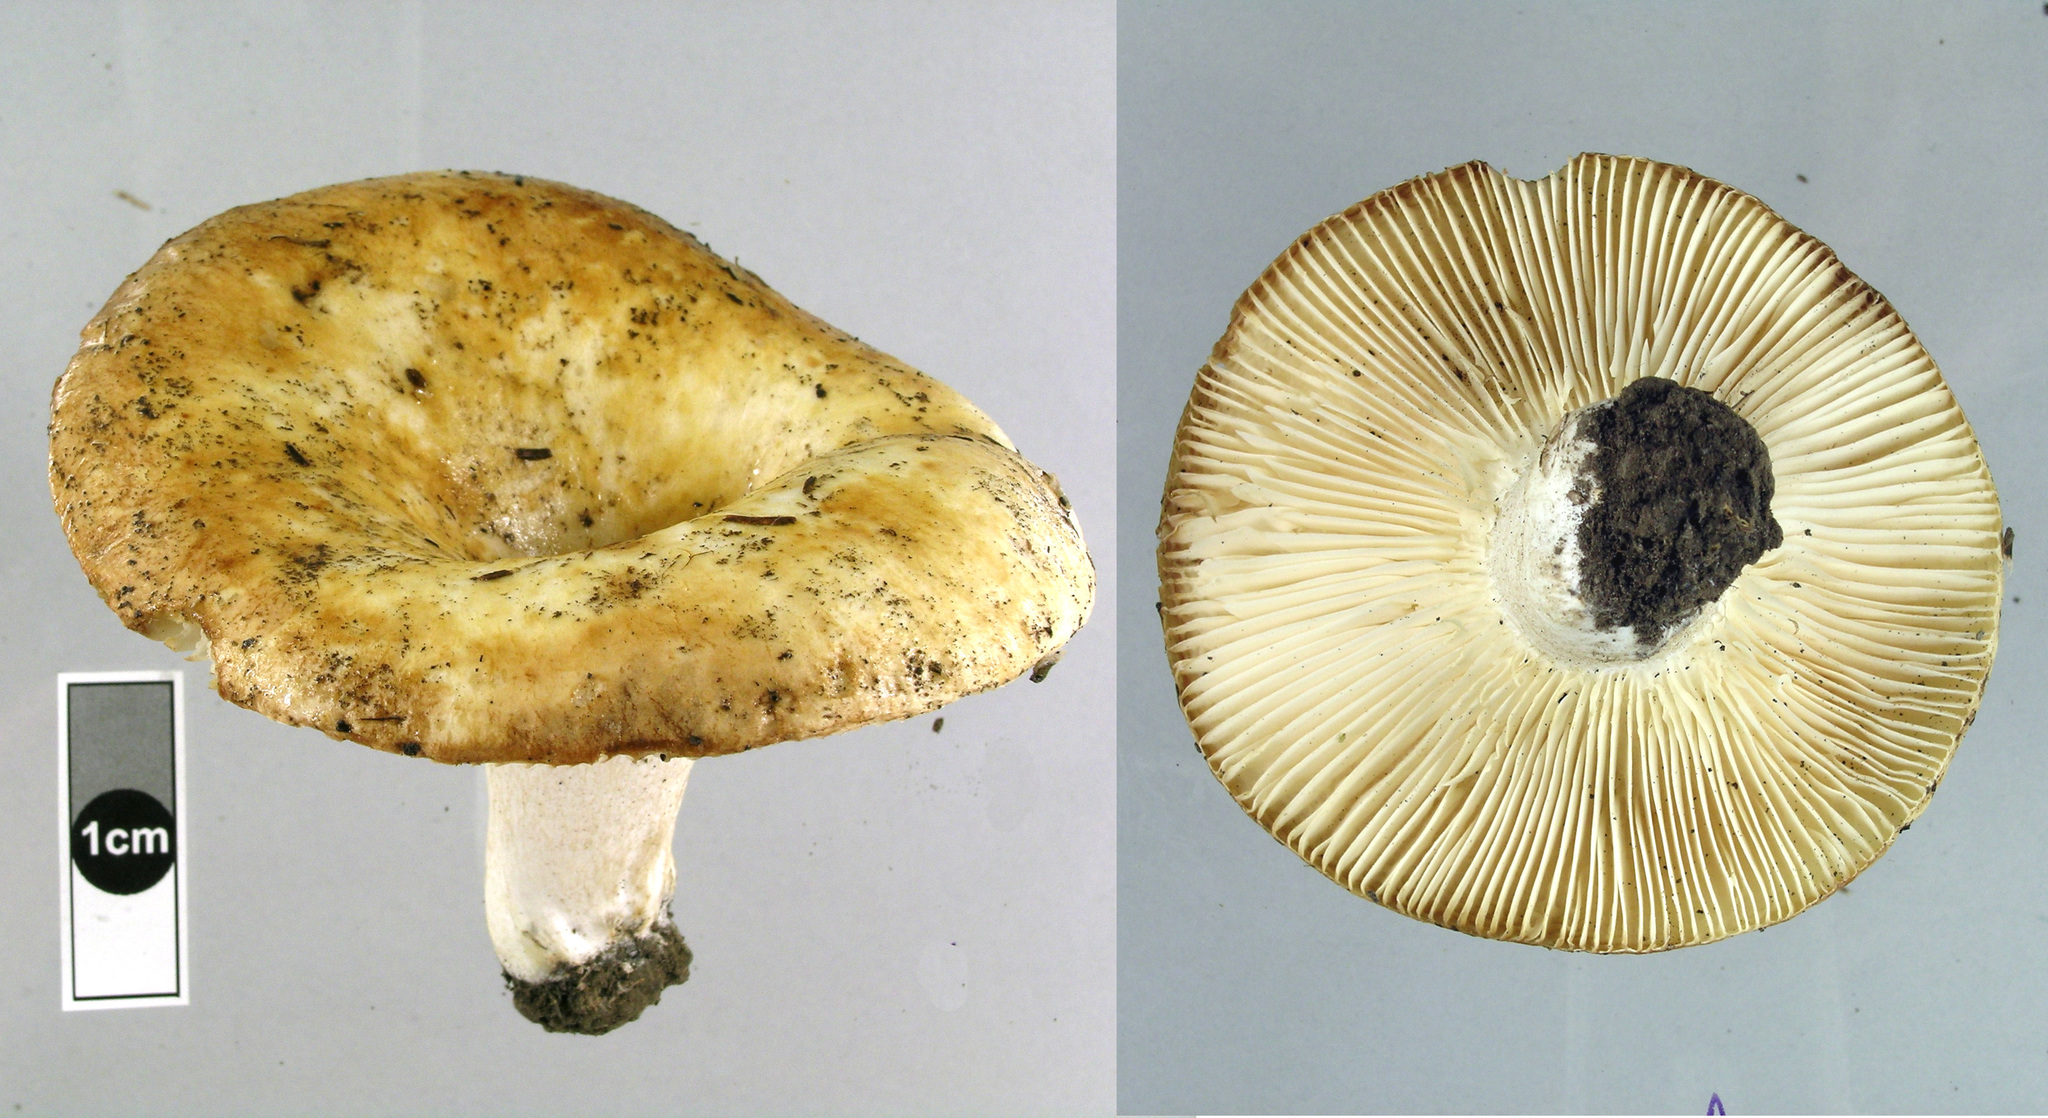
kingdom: Fungi
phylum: Basidiomycota
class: Agaricomycetes
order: Russulales
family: Russulaceae
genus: Russula
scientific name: Russula allochroa
